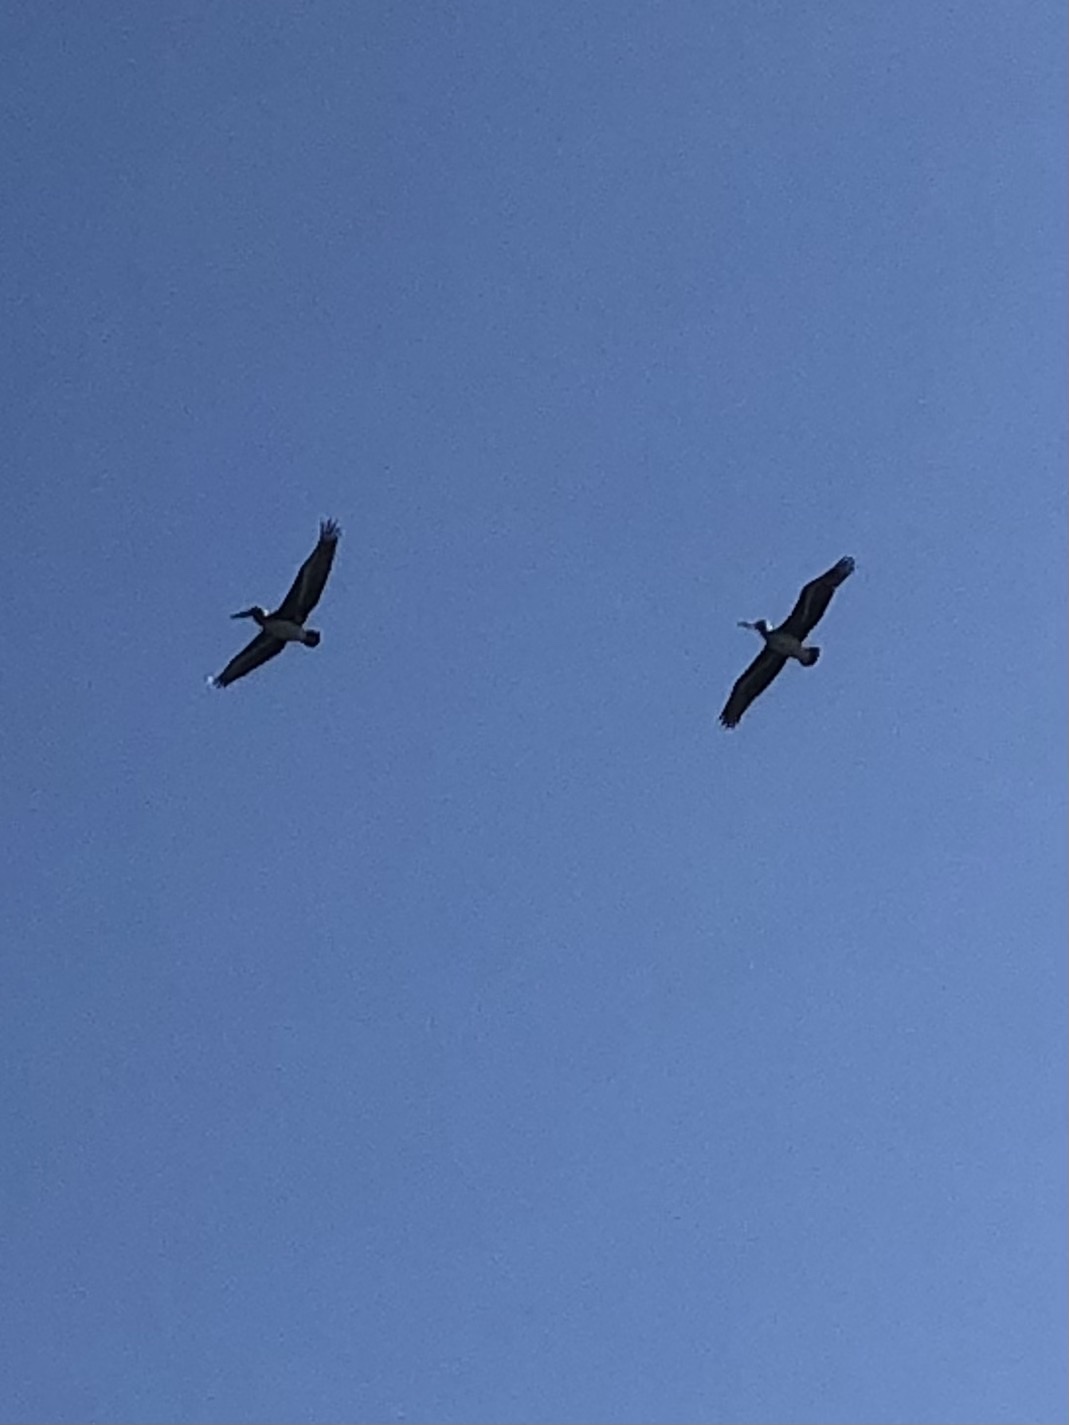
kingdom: Animalia
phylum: Chordata
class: Aves
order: Pelecaniformes
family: Pelecanidae
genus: Pelecanus
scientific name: Pelecanus occidentalis
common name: Brown pelican
